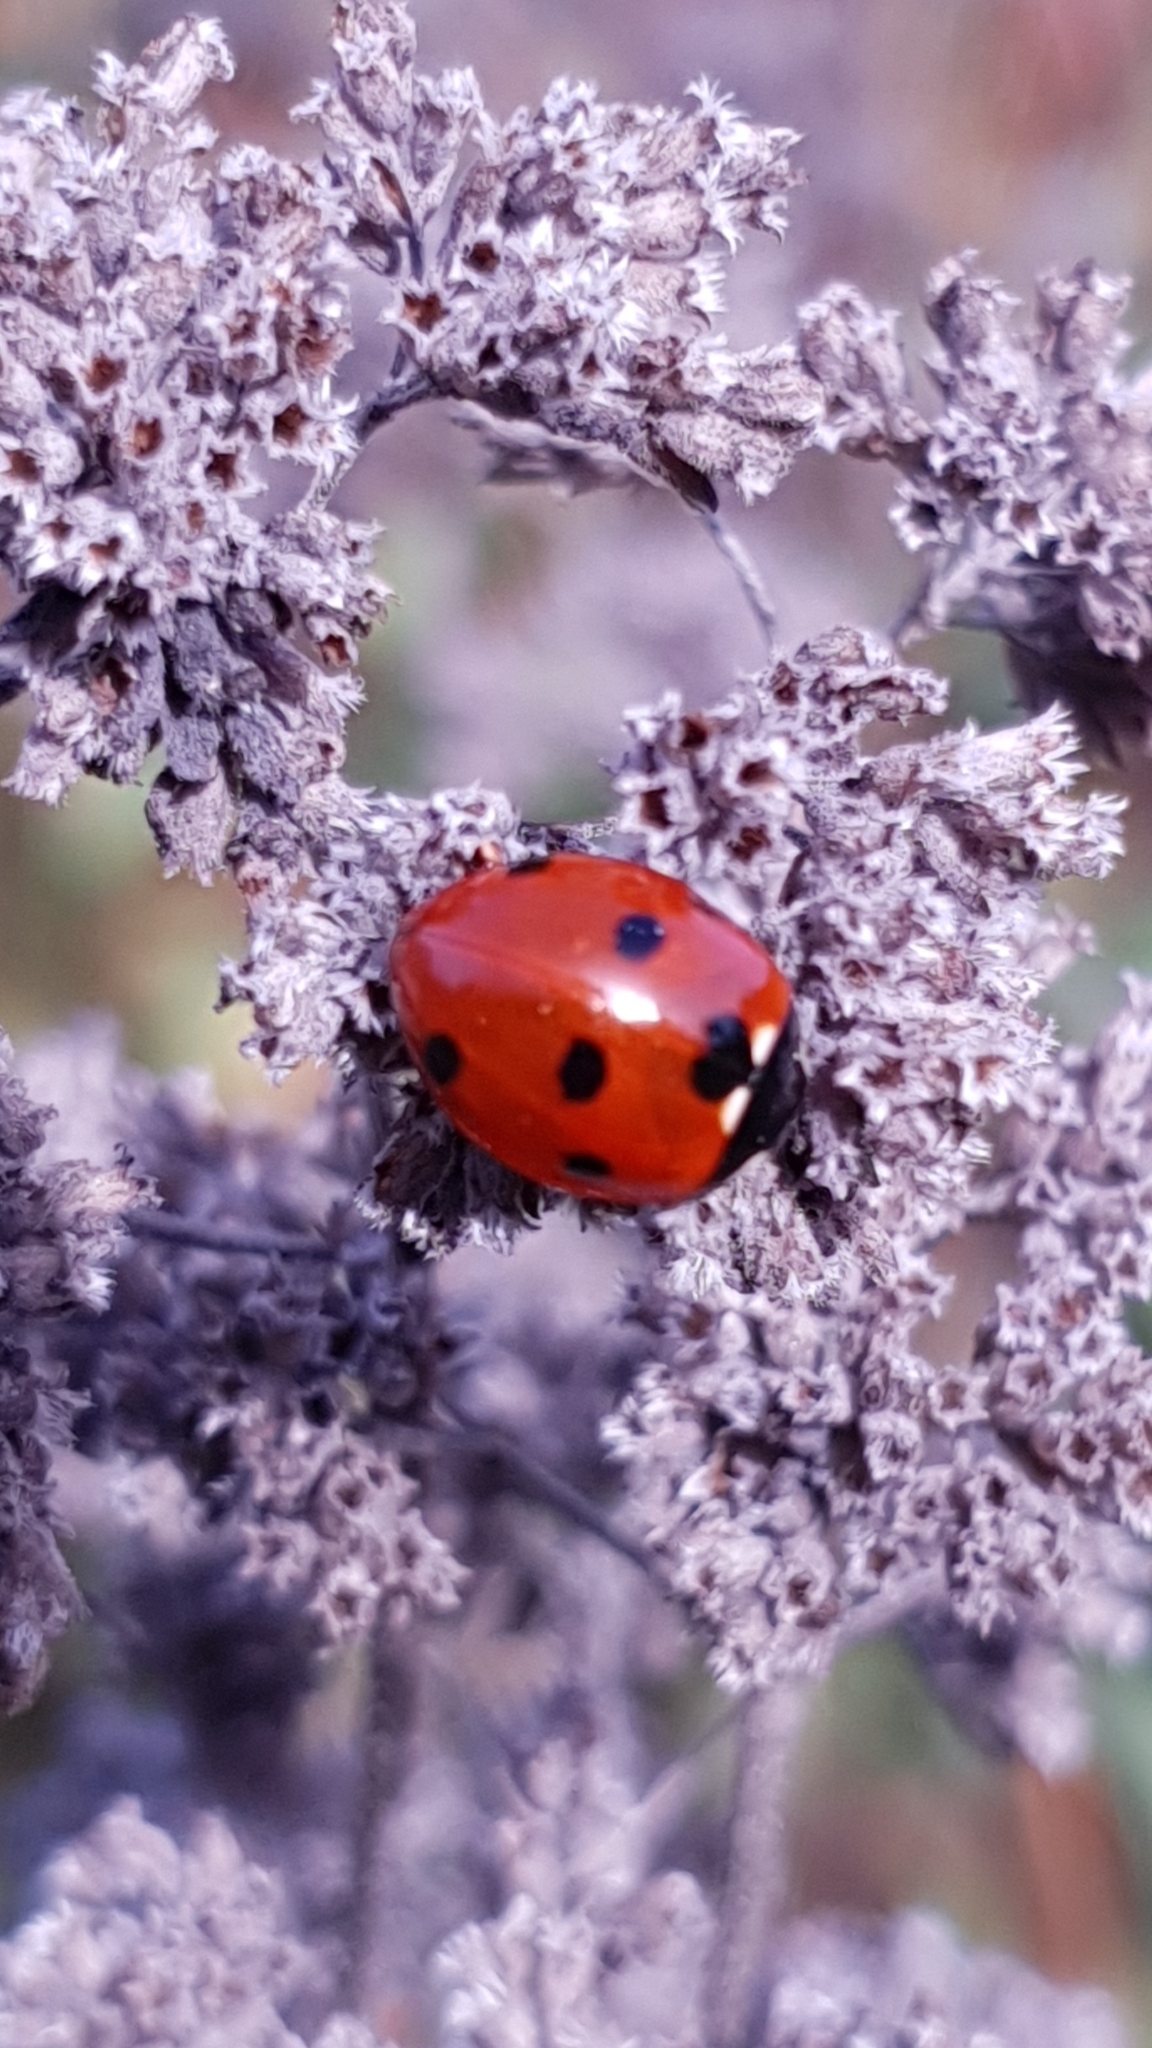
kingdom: Animalia
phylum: Arthropoda
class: Insecta
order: Coleoptera
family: Coccinellidae
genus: Coccinella
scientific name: Coccinella septempunctata
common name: Sevenspotted lady beetle
